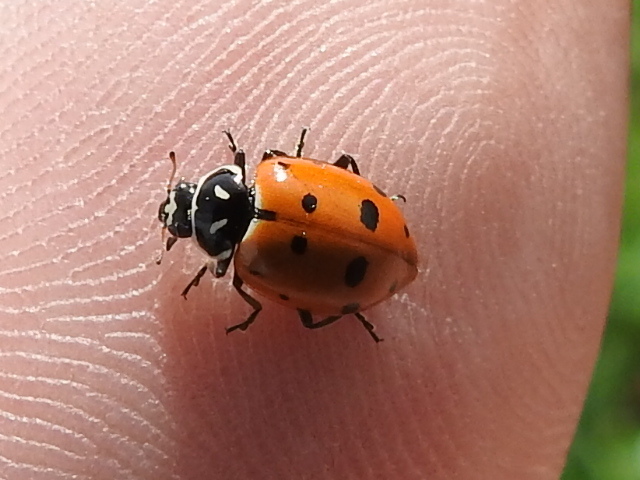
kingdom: Animalia
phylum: Arthropoda
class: Insecta
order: Coleoptera
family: Coccinellidae
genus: Hippodamia
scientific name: Hippodamia convergens
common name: Convergent lady beetle
